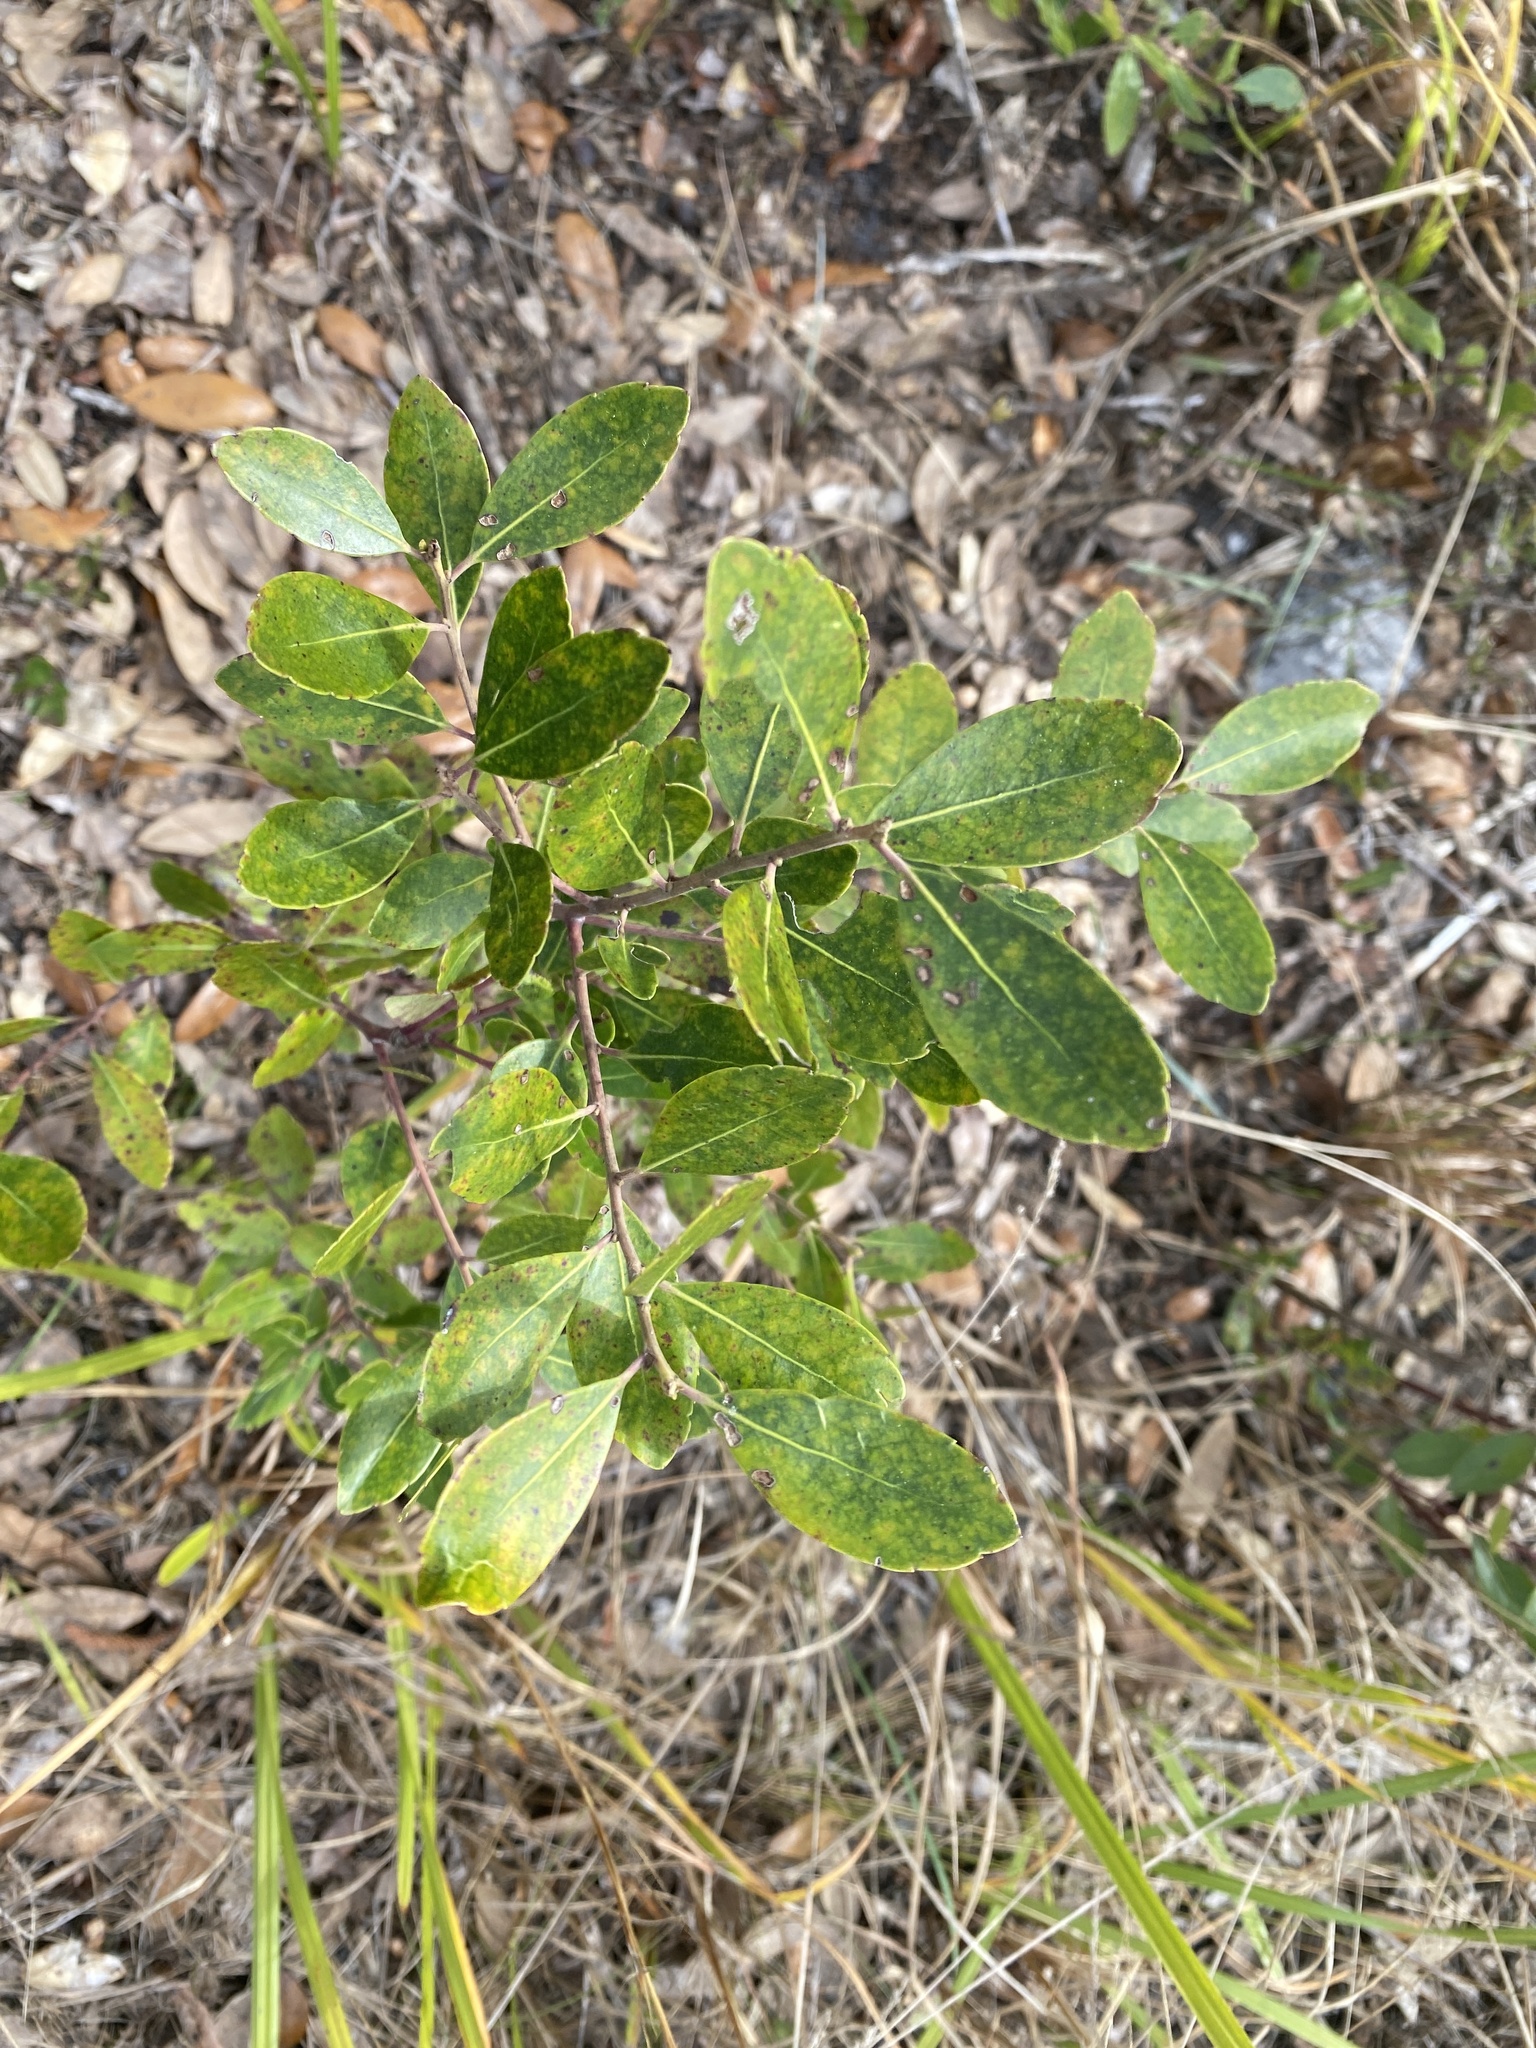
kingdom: Plantae
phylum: Tracheophyta
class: Magnoliopsida
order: Aquifoliales
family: Aquifoliaceae
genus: Ilex
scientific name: Ilex glabra
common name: Bitter gallberry
